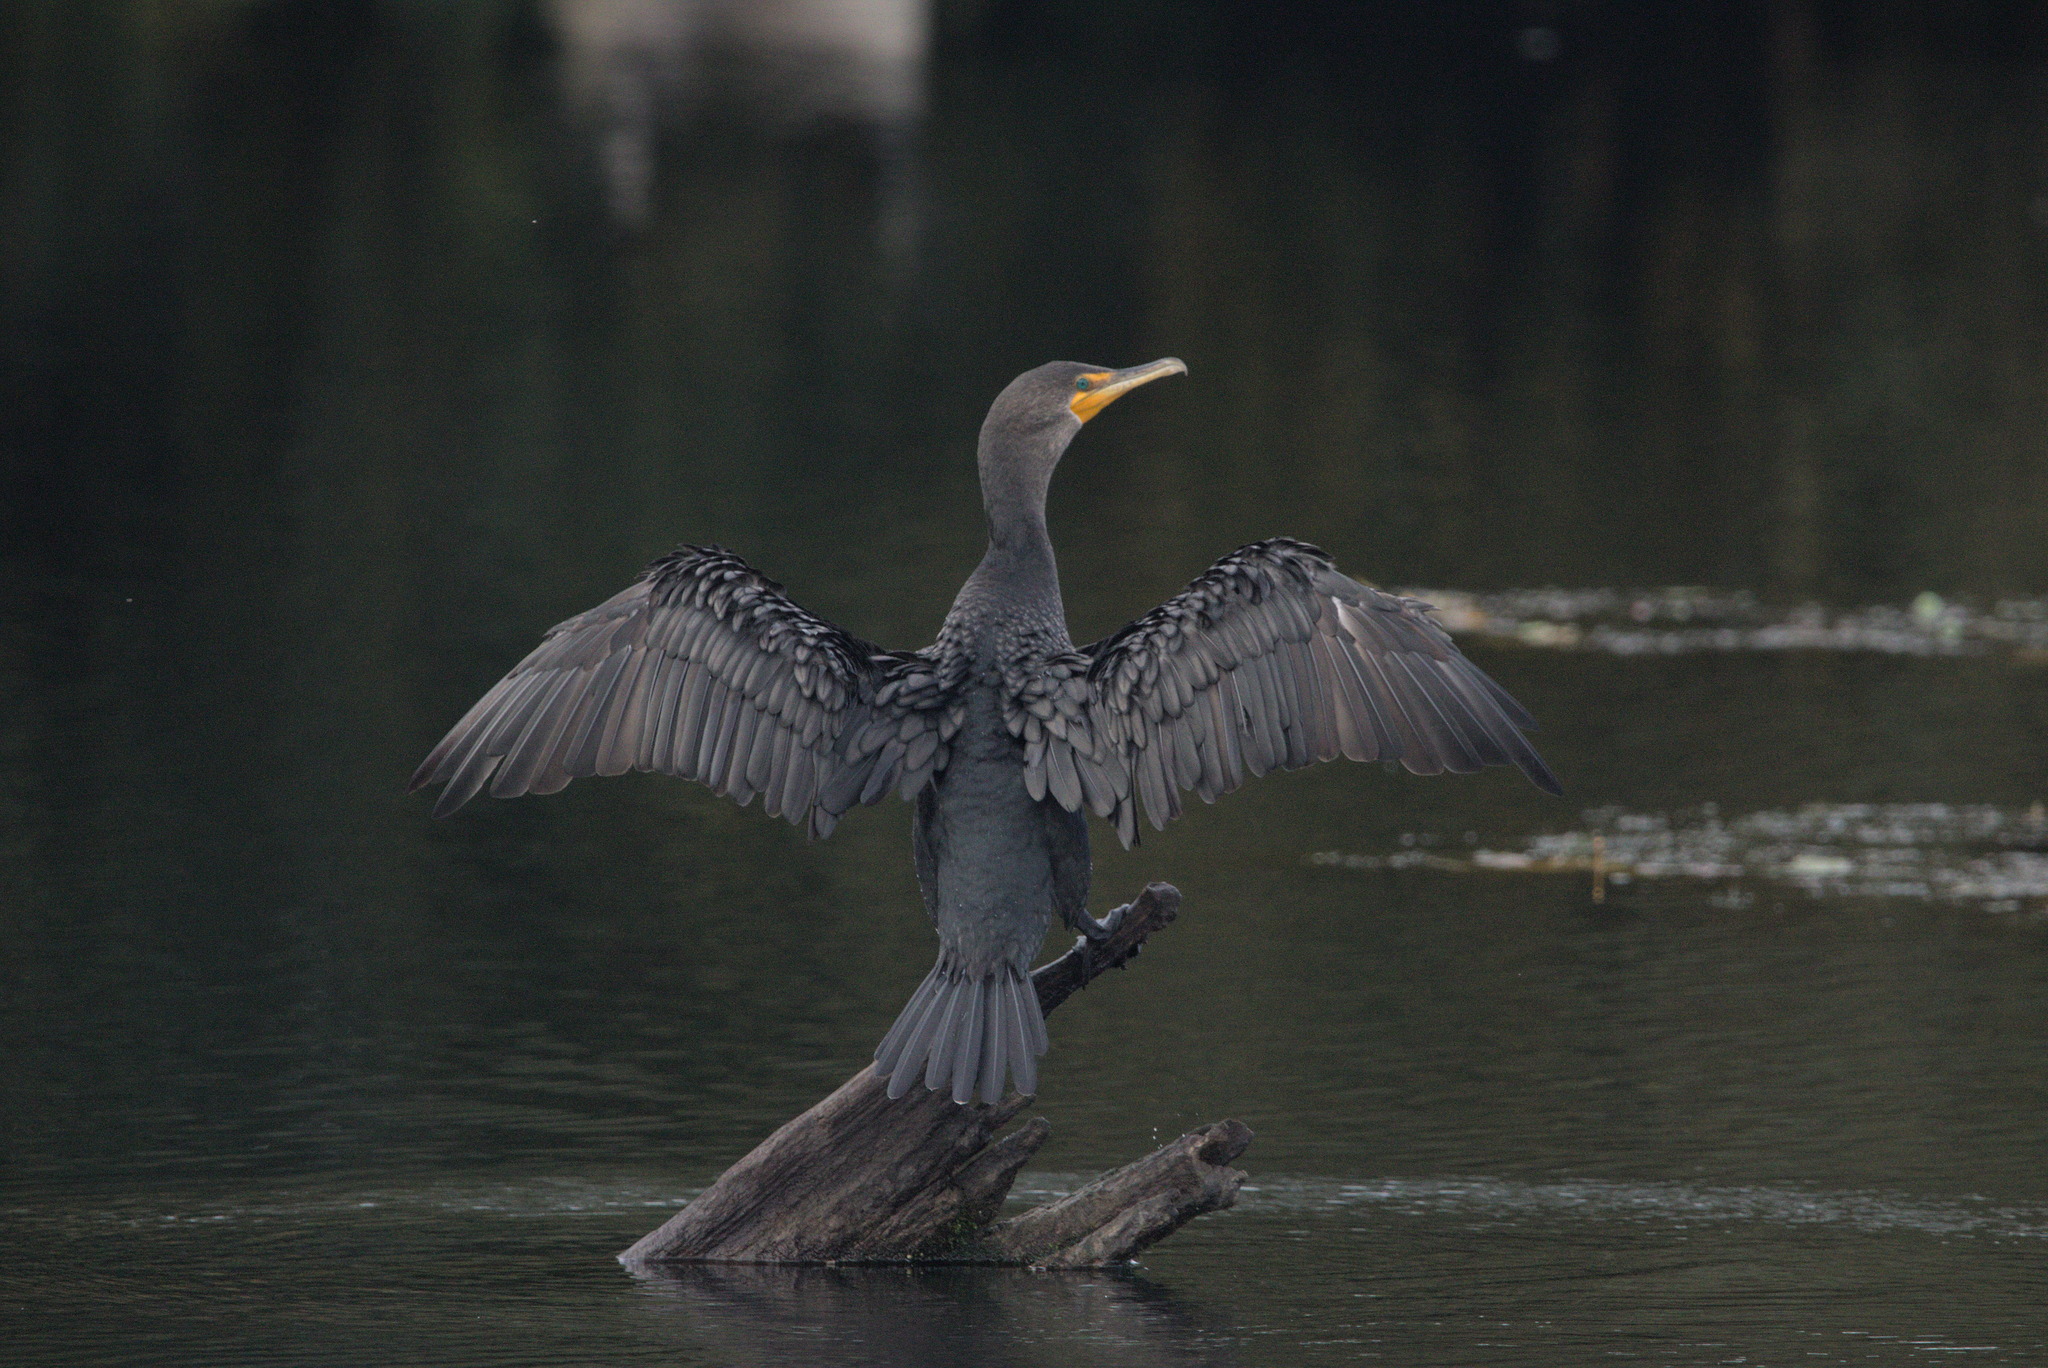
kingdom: Animalia
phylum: Chordata
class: Aves
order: Suliformes
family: Phalacrocoracidae
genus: Phalacrocorax
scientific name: Phalacrocorax auritus
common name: Double-crested cormorant
